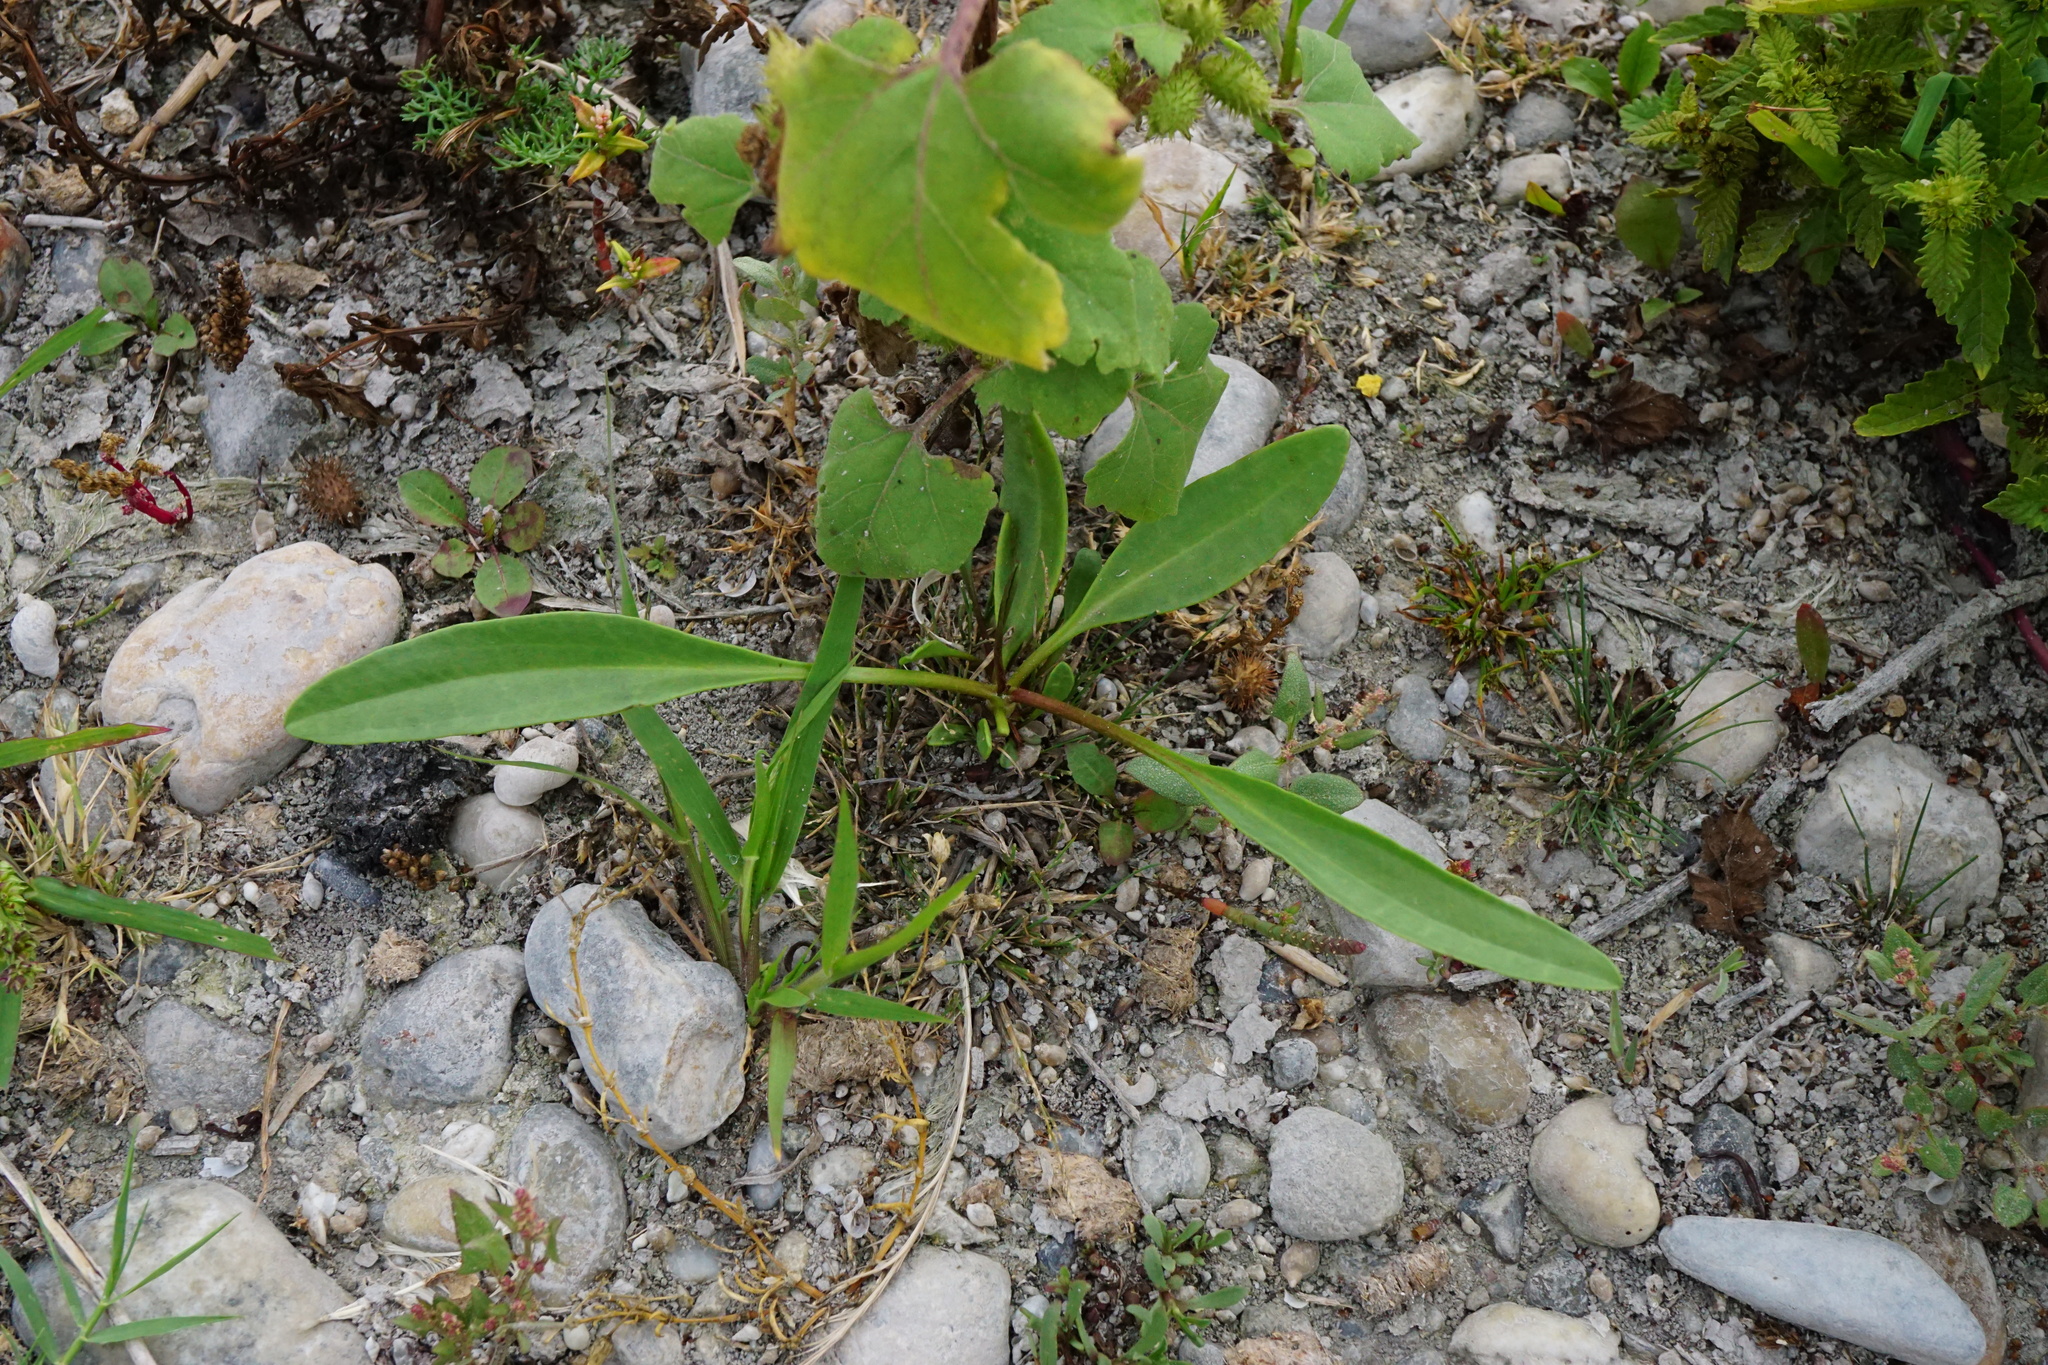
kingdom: Plantae
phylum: Tracheophyta
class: Magnoliopsida
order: Brassicales
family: Brassicaceae
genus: Lepidium
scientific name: Lepidium cartilagineum
